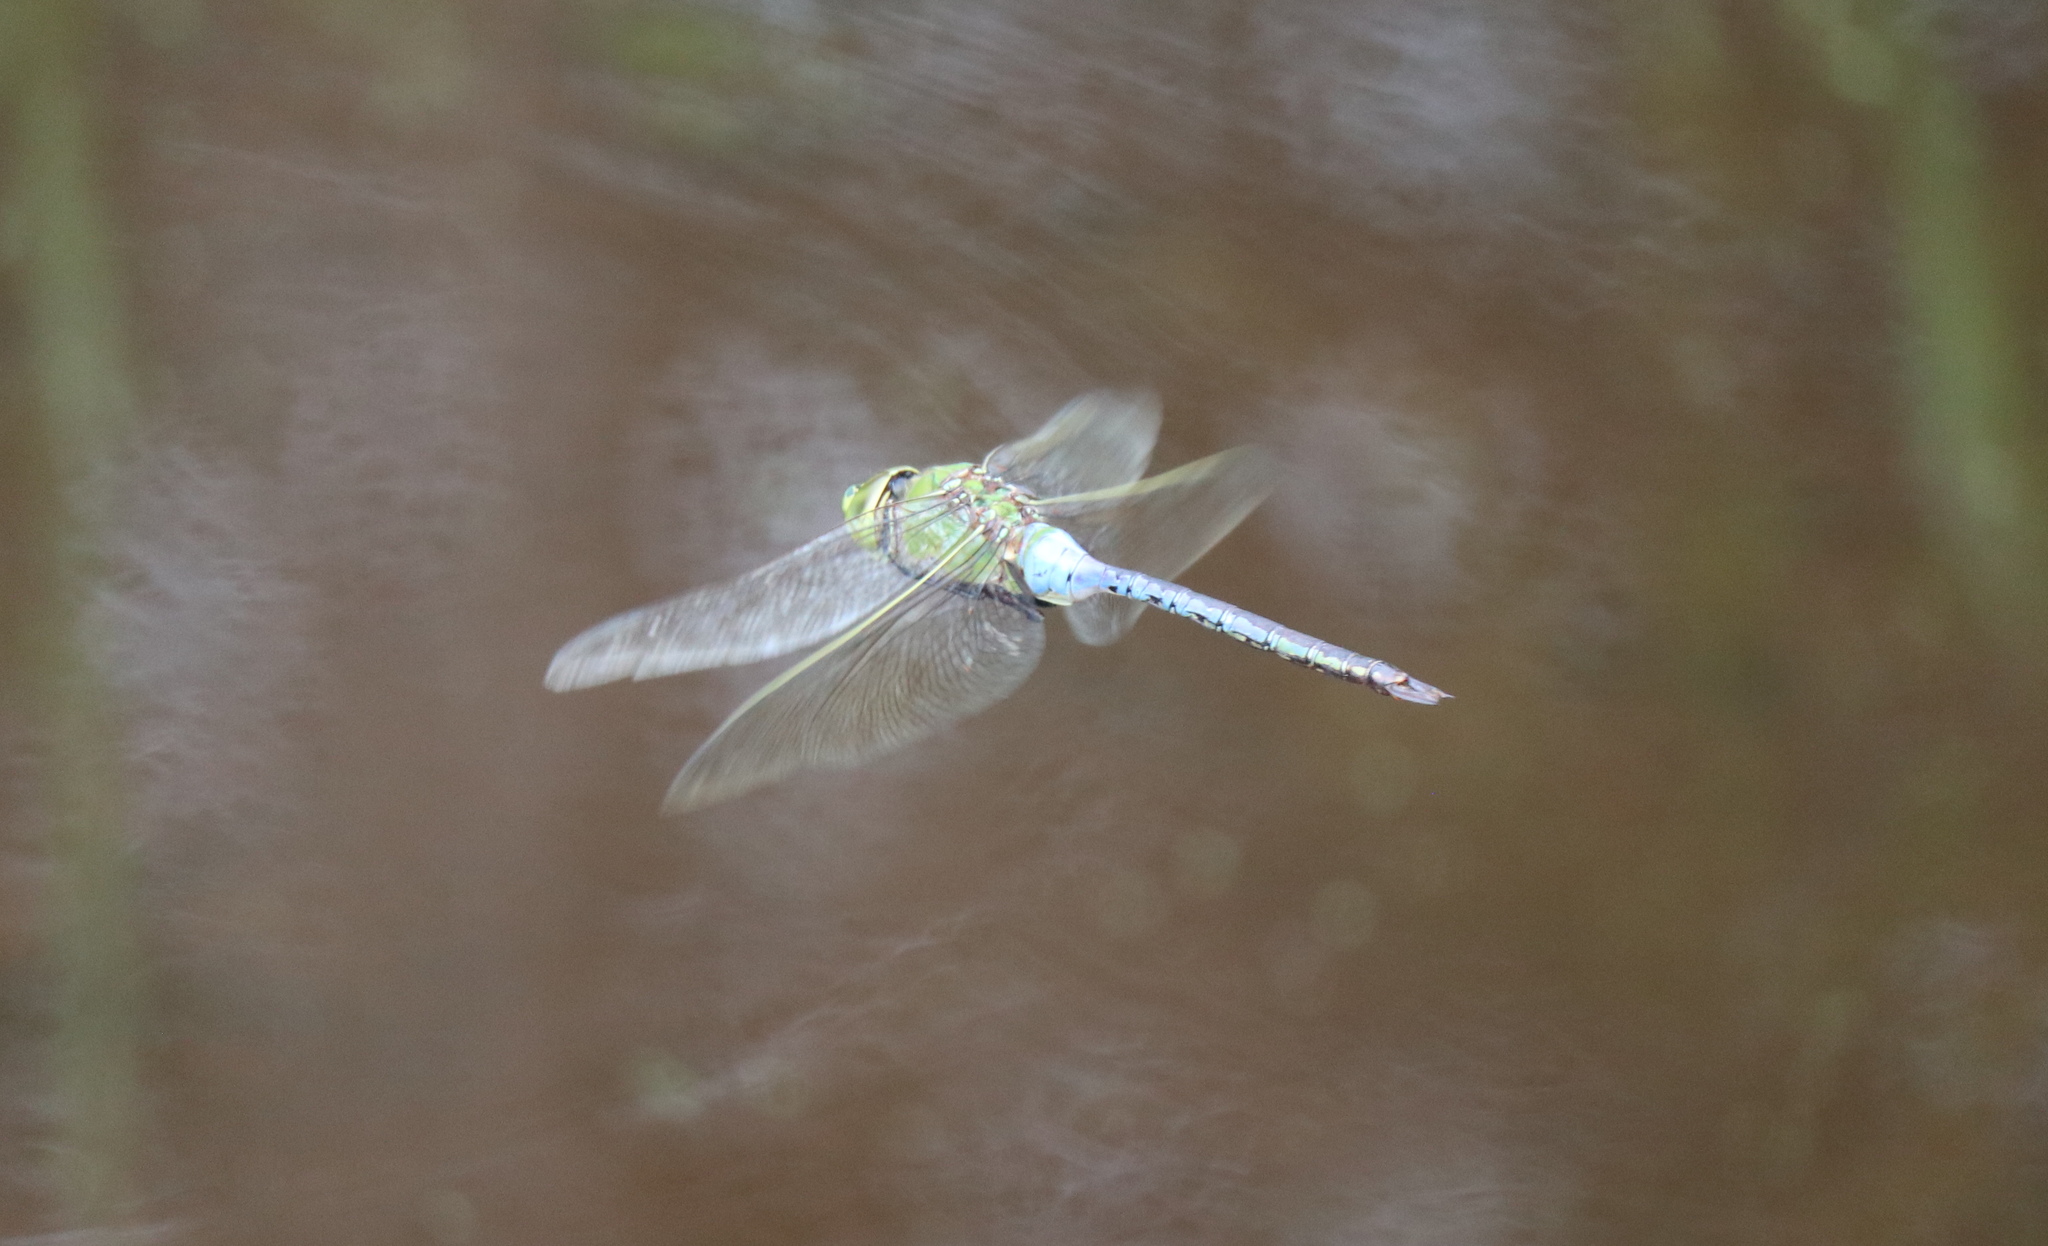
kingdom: Animalia
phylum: Arthropoda
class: Insecta
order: Odonata
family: Aeshnidae
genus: Anax
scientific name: Anax junius
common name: Common green darner
